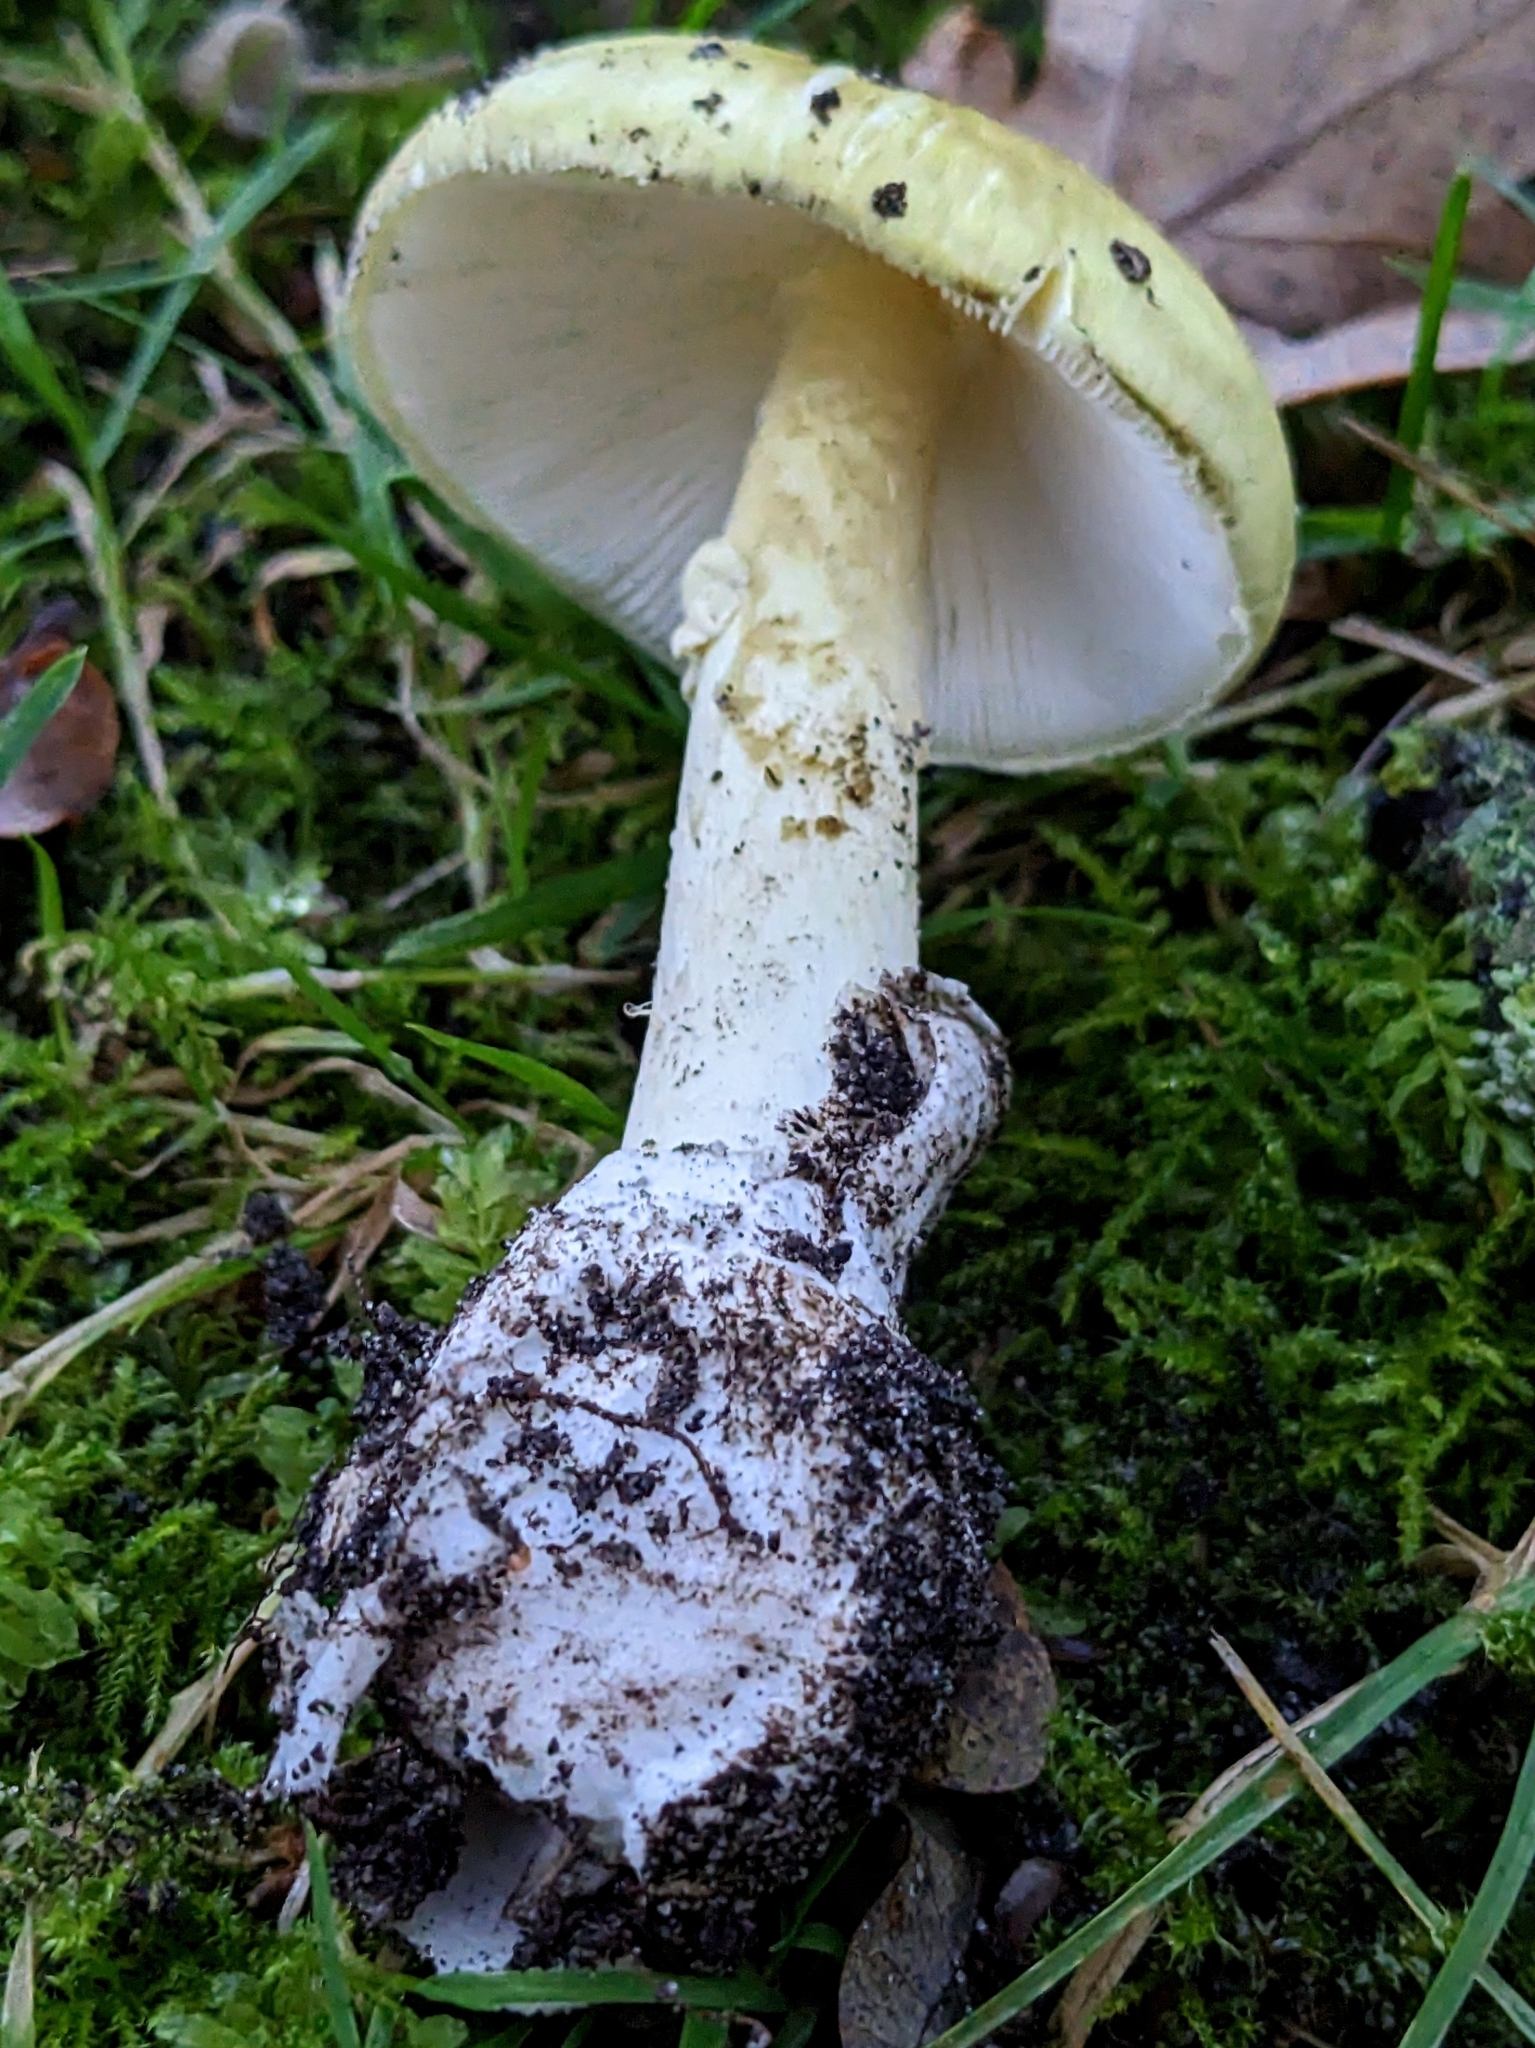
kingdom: Fungi
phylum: Basidiomycota
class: Agaricomycetes
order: Agaricales
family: Amanitaceae
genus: Amanita
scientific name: Amanita phalloides
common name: Death cap
